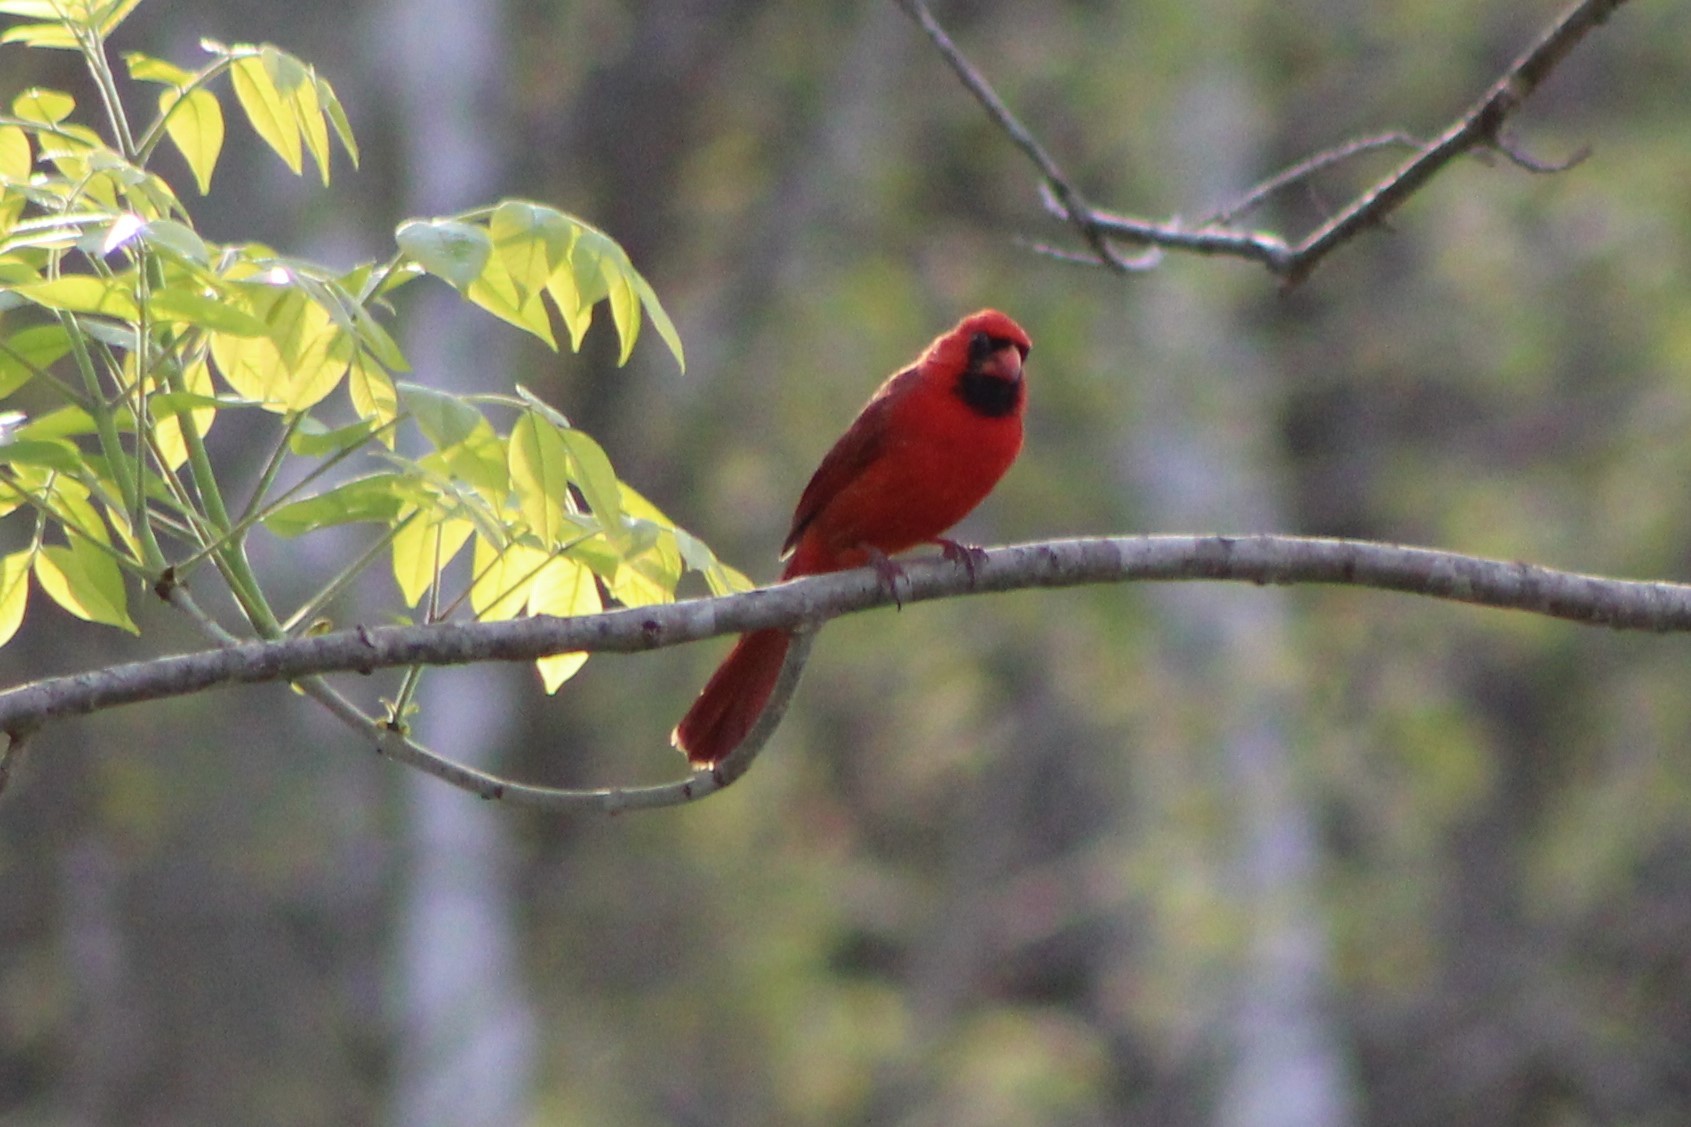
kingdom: Animalia
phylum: Chordata
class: Aves
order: Passeriformes
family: Cardinalidae
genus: Cardinalis
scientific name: Cardinalis cardinalis
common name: Northern cardinal
